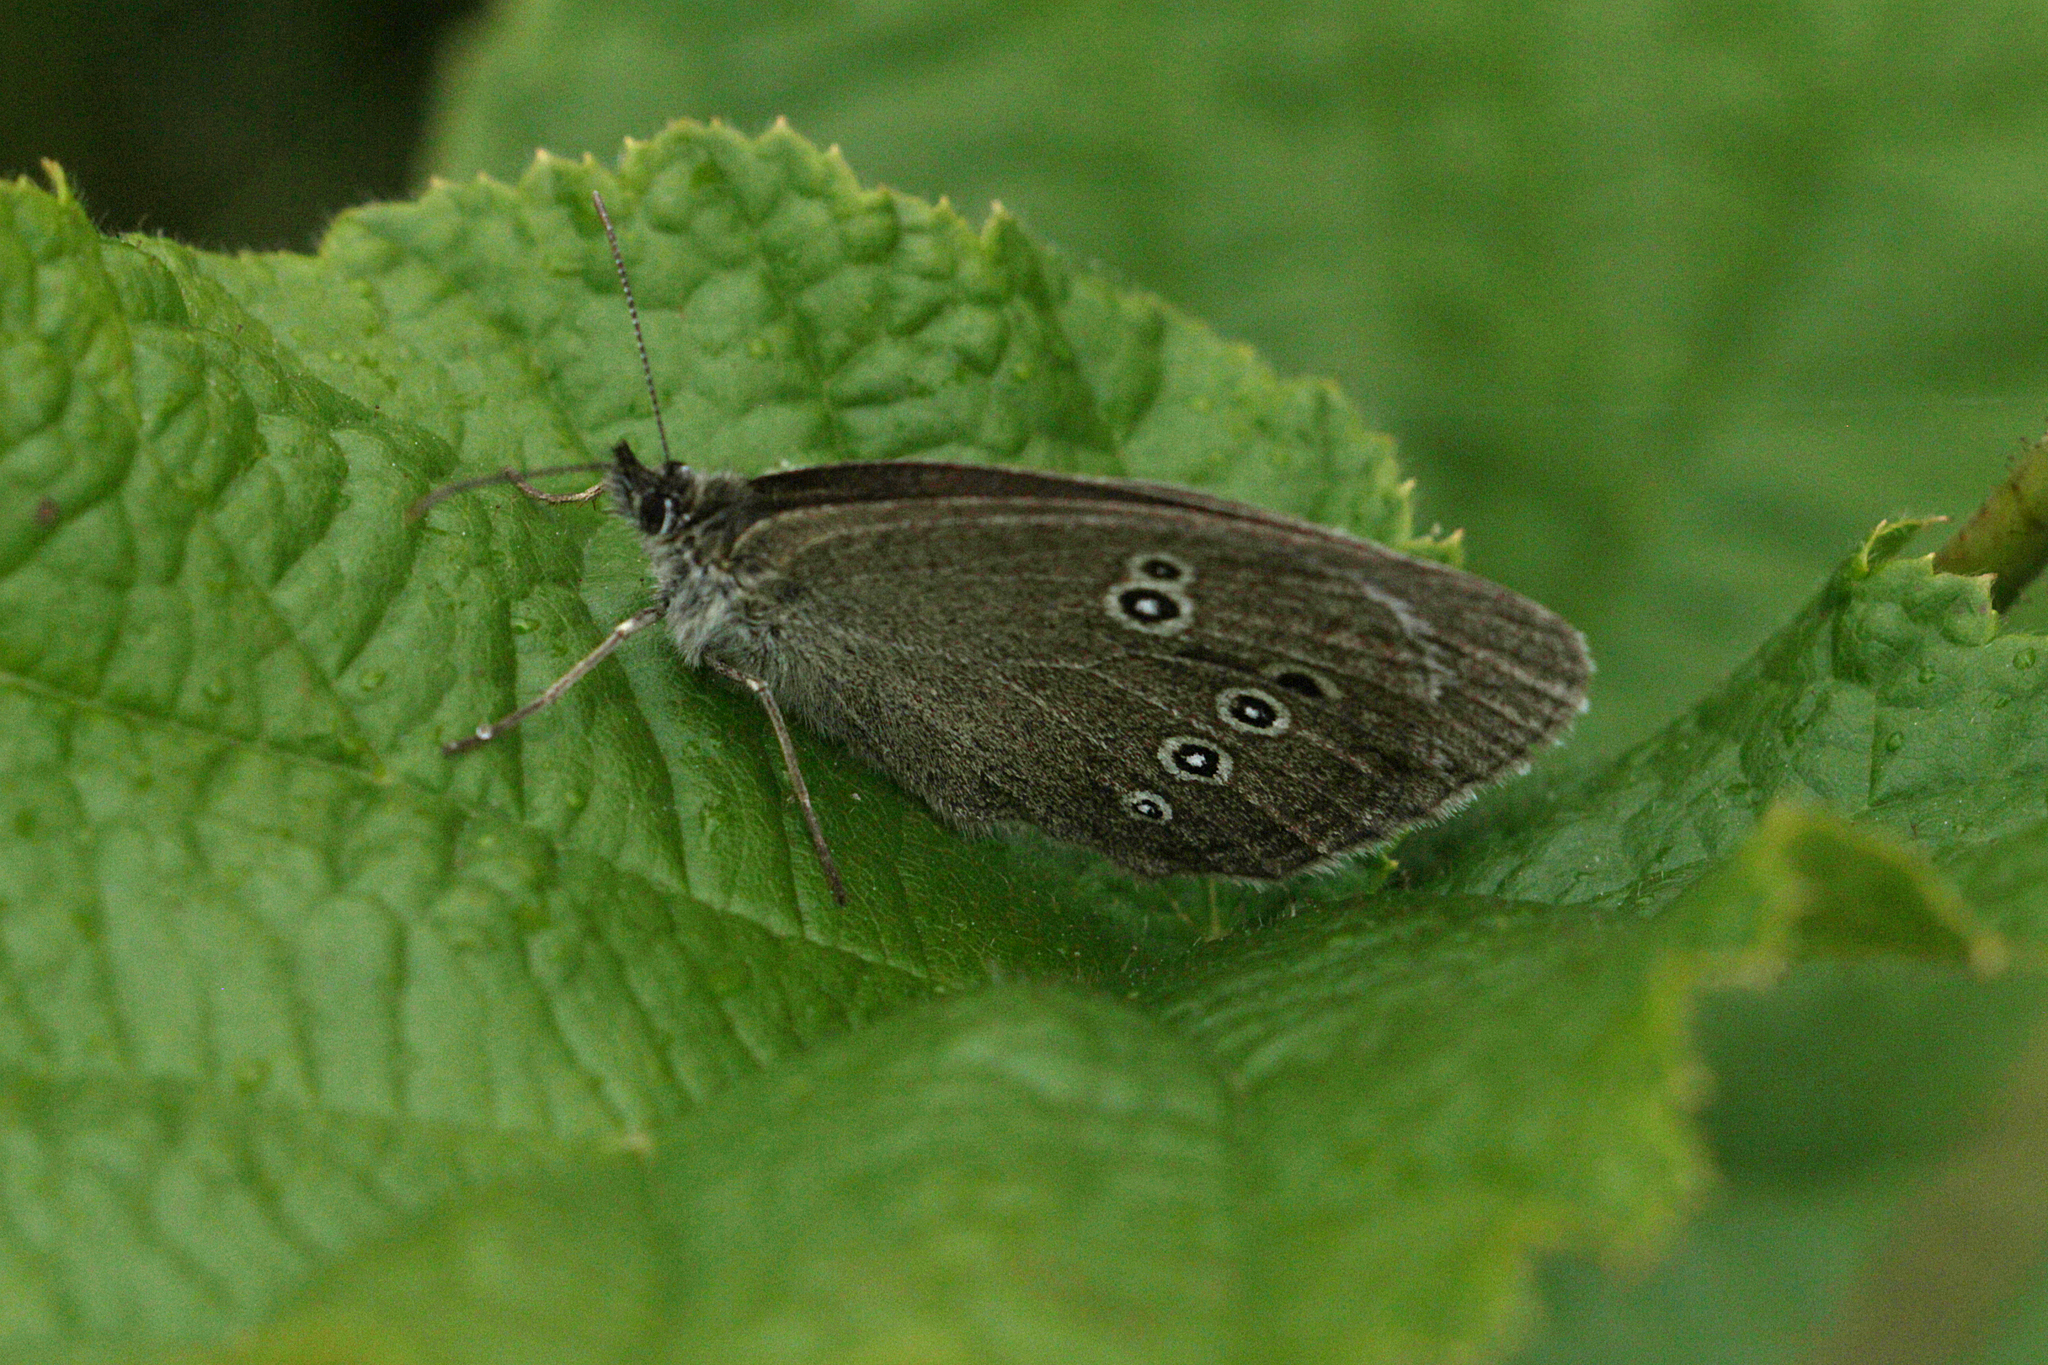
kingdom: Animalia
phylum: Arthropoda
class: Insecta
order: Lepidoptera
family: Nymphalidae
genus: Aphantopus
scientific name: Aphantopus hyperantus
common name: Ringlet
